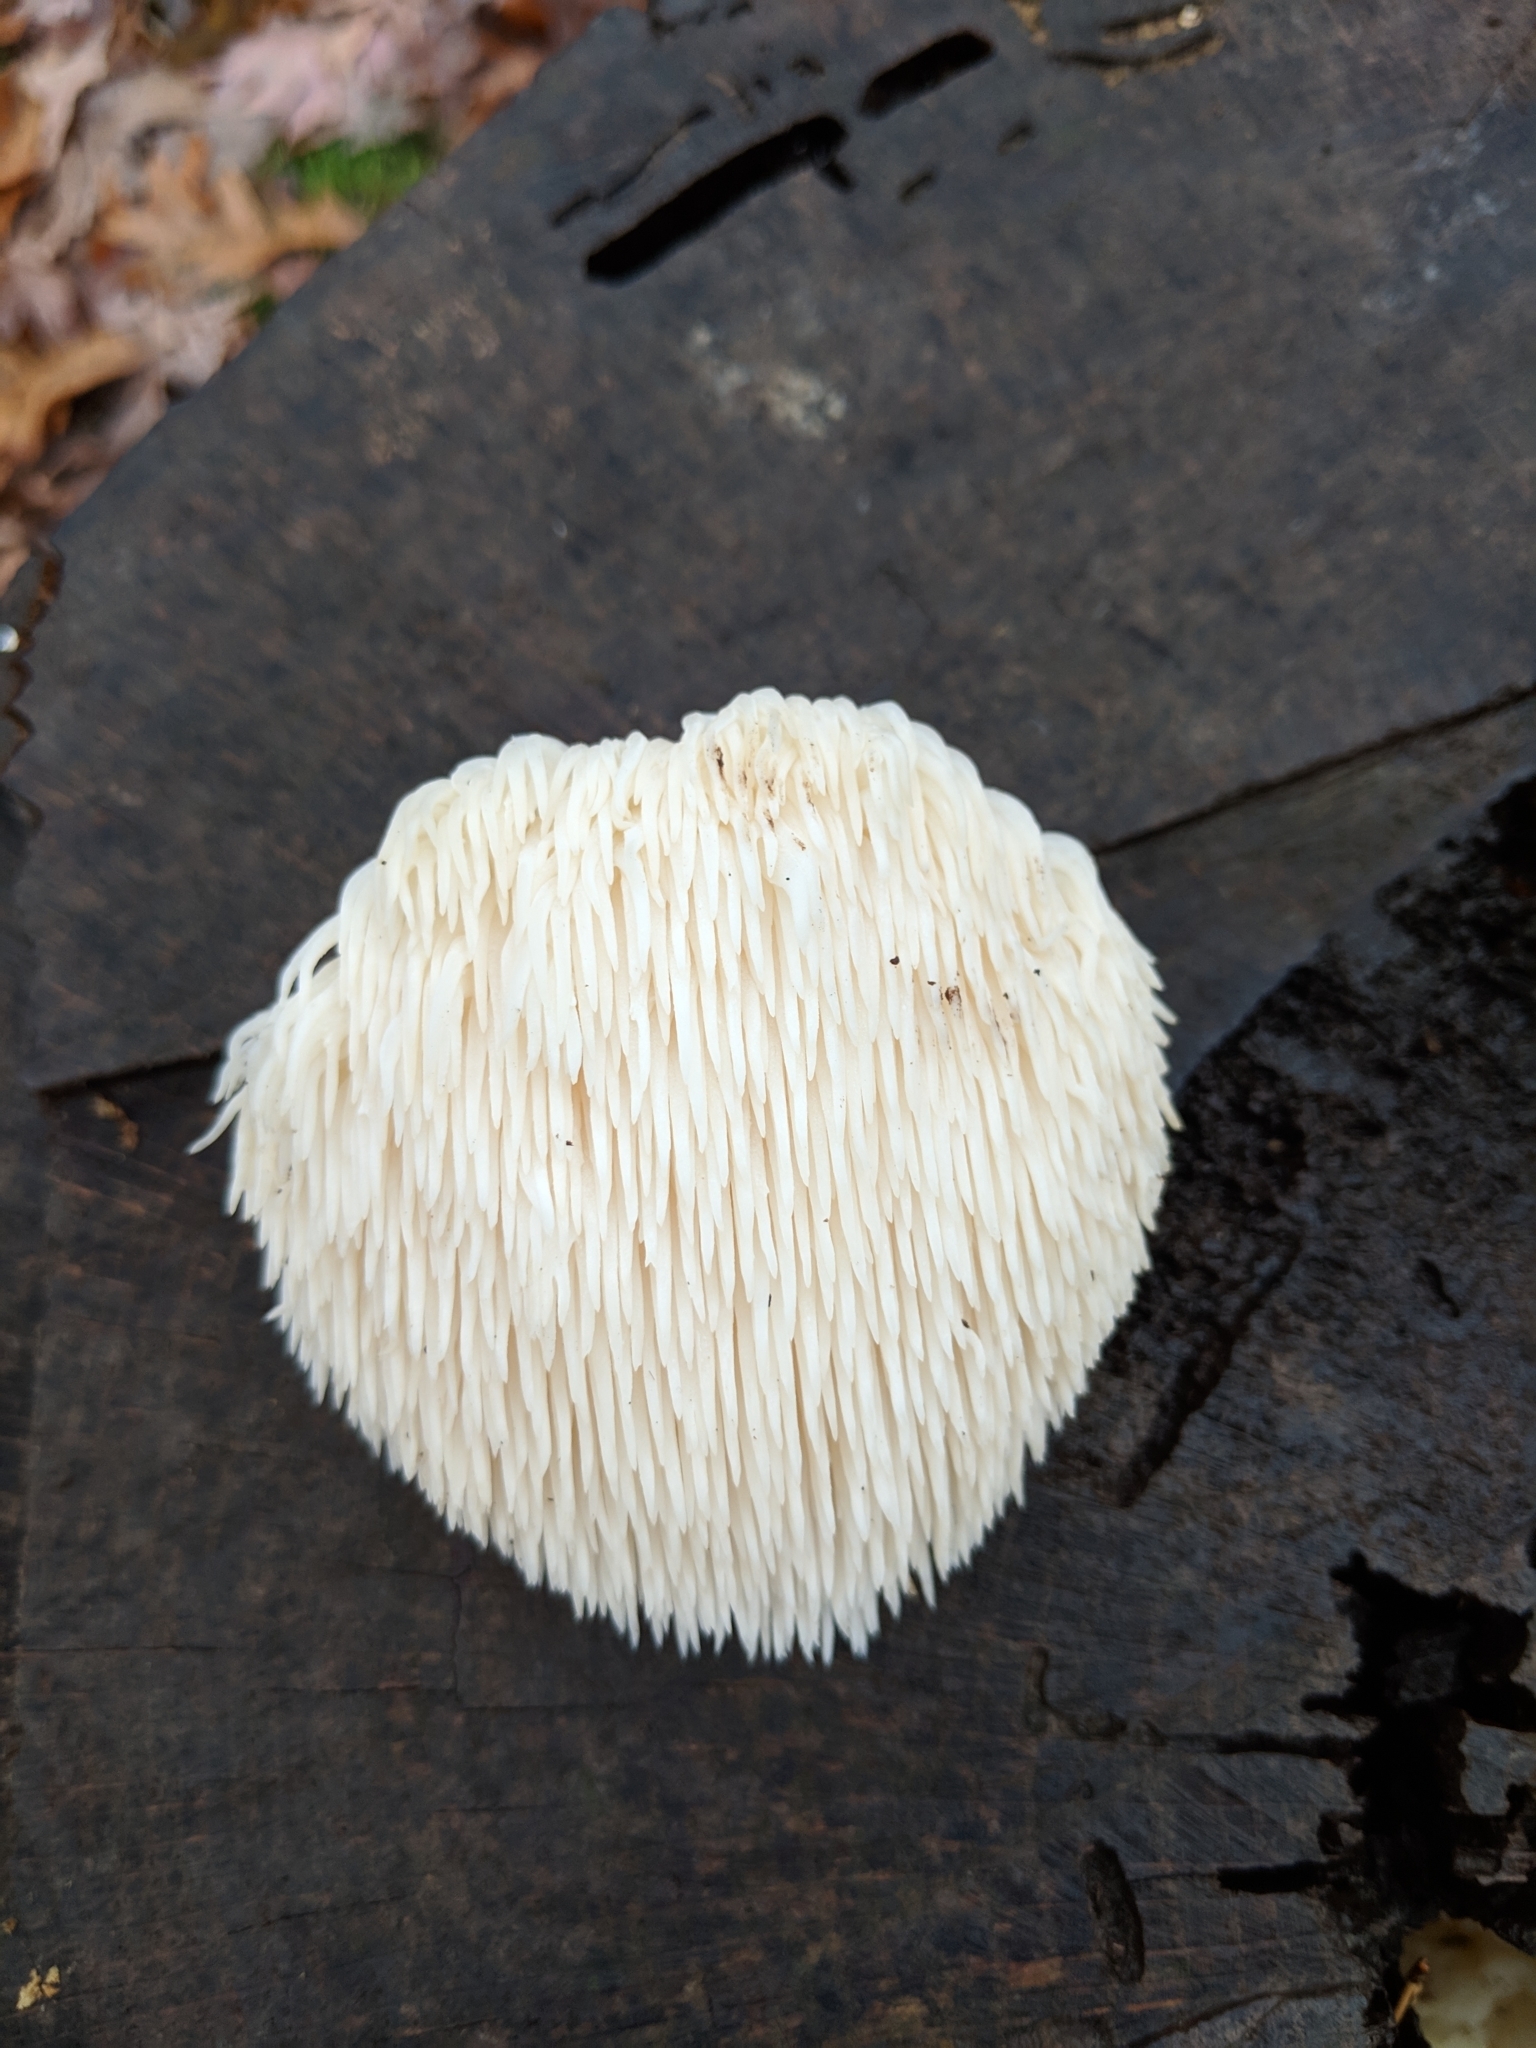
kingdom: Fungi
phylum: Basidiomycota
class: Agaricomycetes
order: Russulales
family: Hericiaceae
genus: Hericium
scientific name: Hericium erinaceus
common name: Bearded tooth
